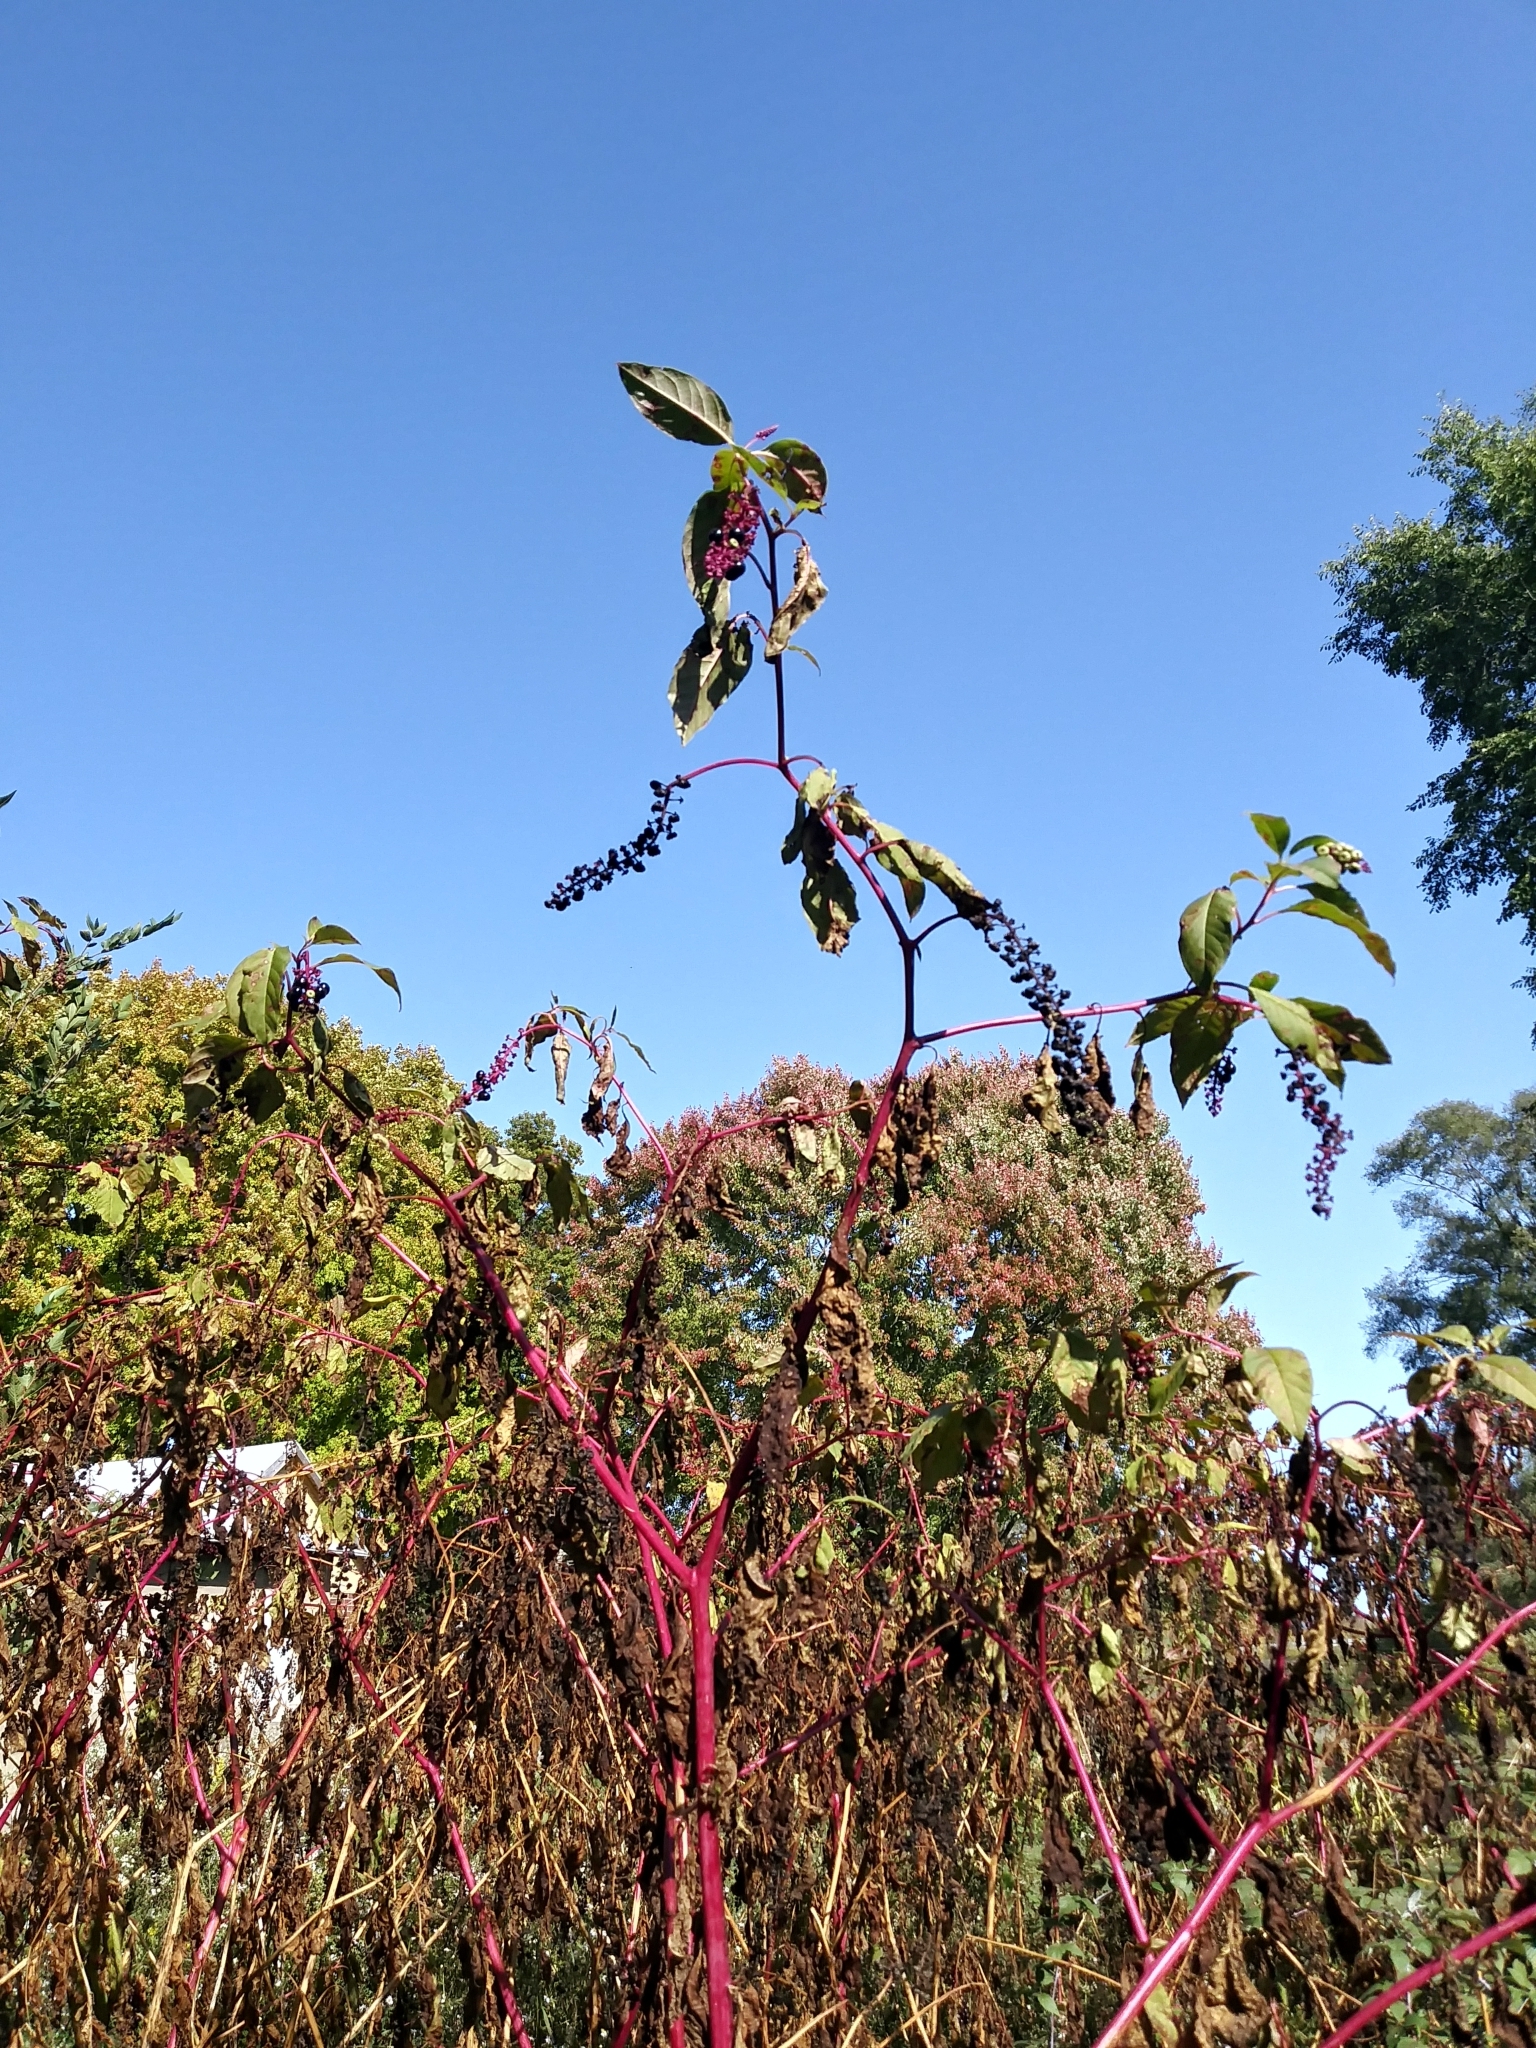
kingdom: Plantae
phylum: Tracheophyta
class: Magnoliopsida
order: Caryophyllales
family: Phytolaccaceae
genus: Phytolacca
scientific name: Phytolacca americana
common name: American pokeweed
